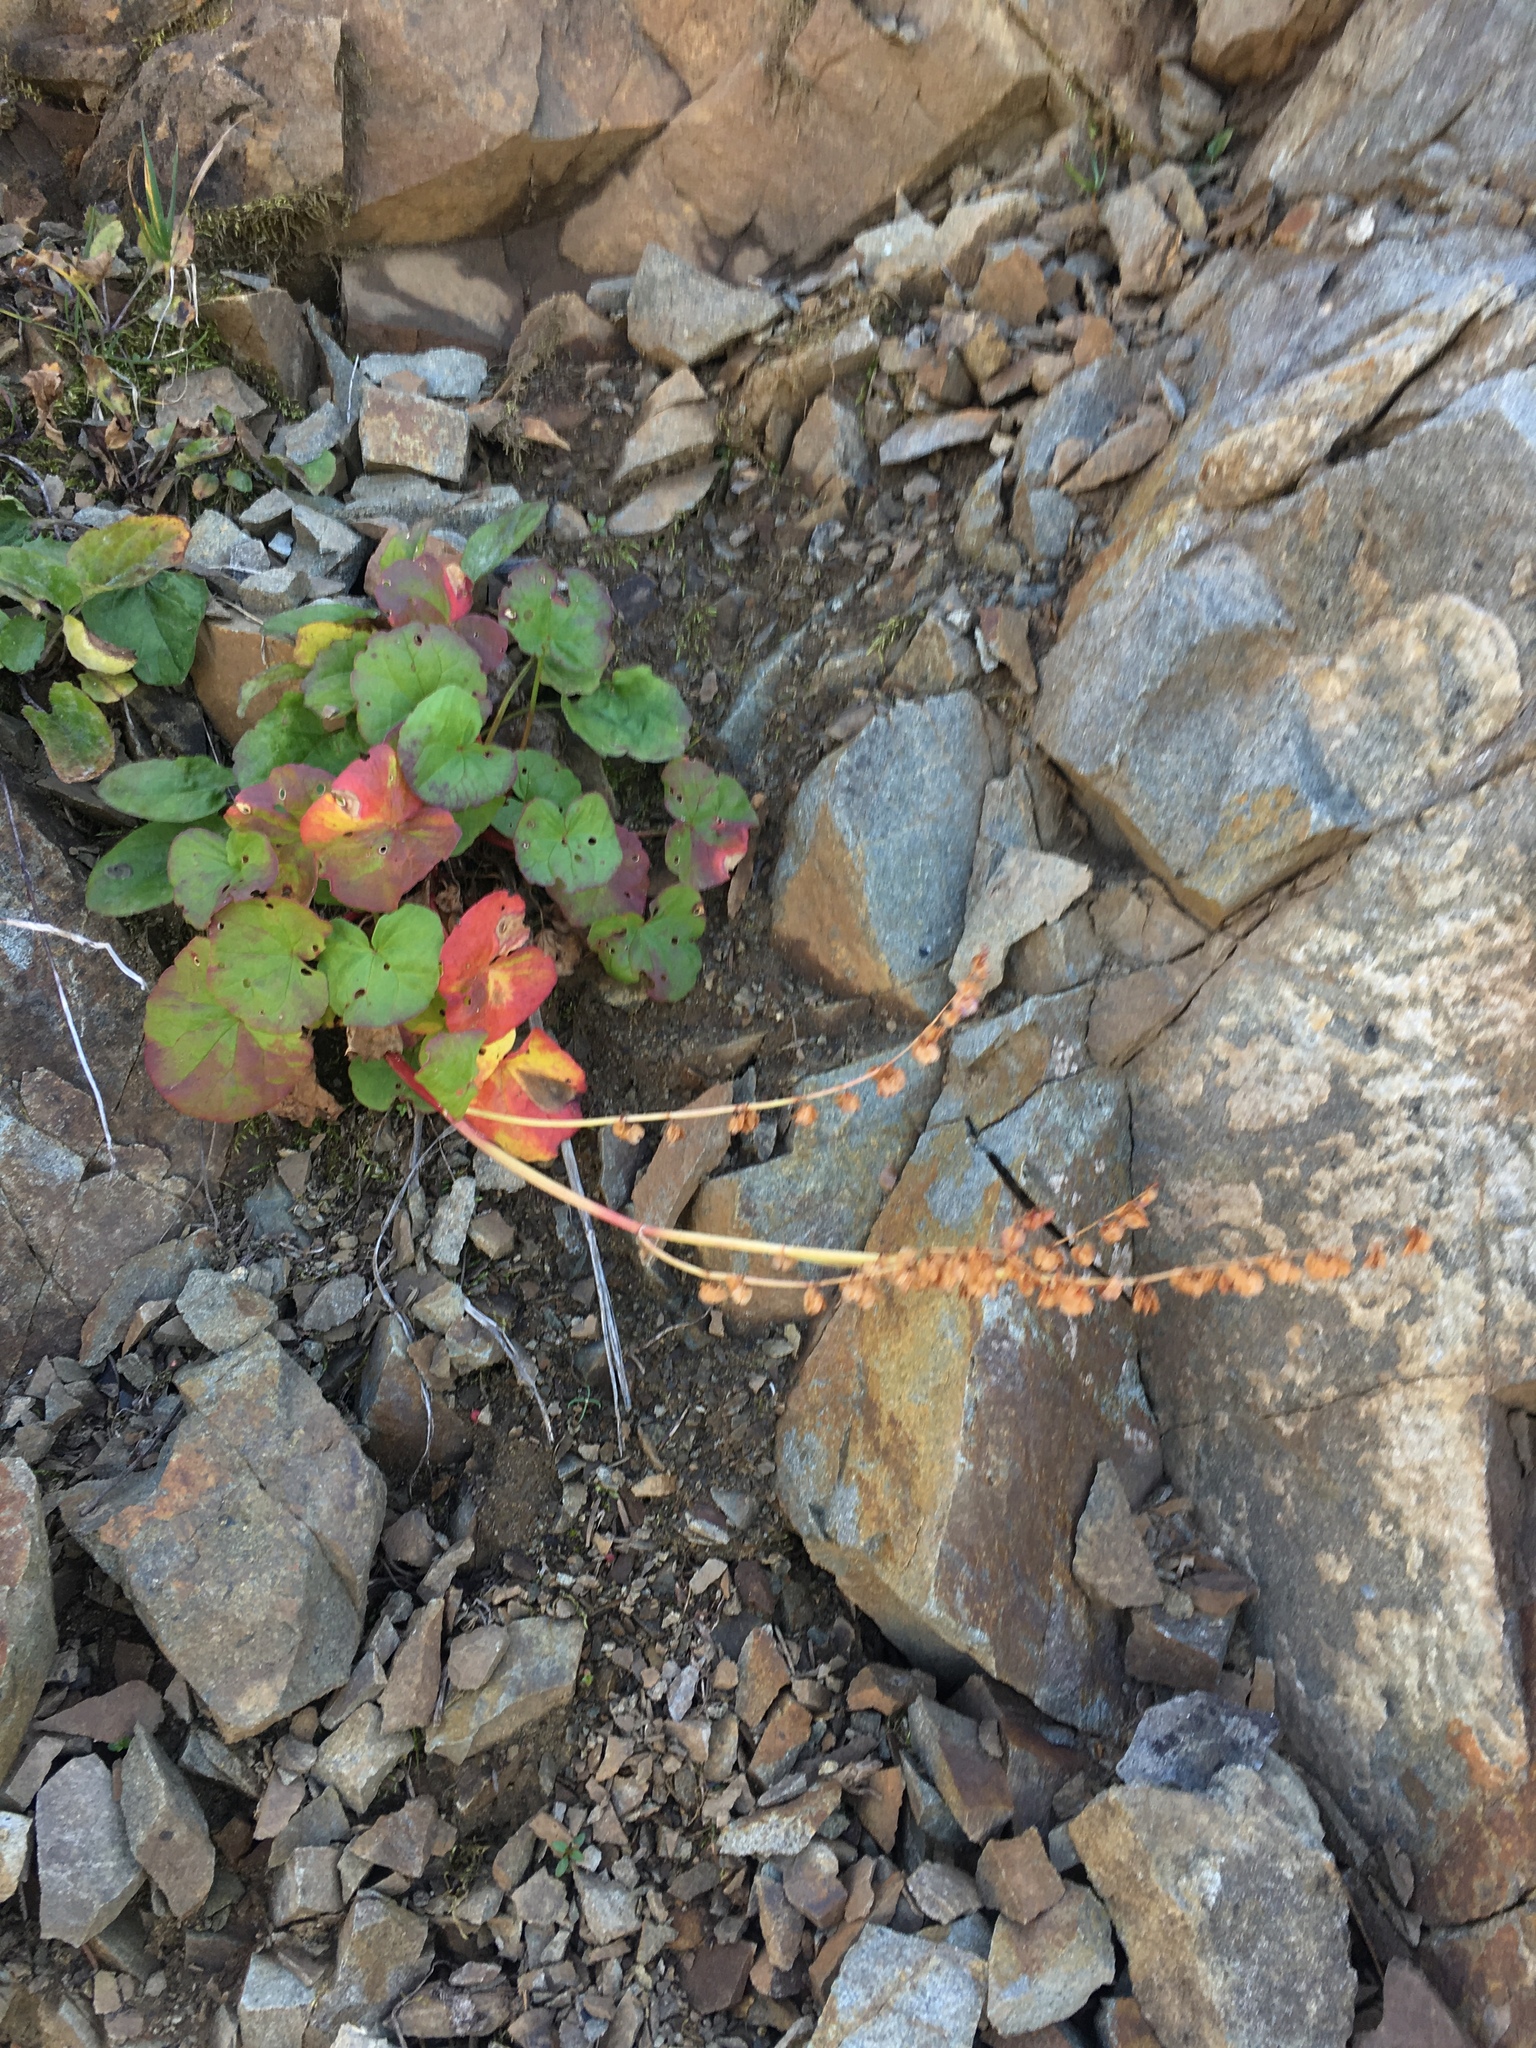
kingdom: Plantae
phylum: Tracheophyta
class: Magnoliopsida
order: Caryophyllales
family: Polygonaceae
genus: Oxyria
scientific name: Oxyria digyna
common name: Alpine mountain-sorrel
